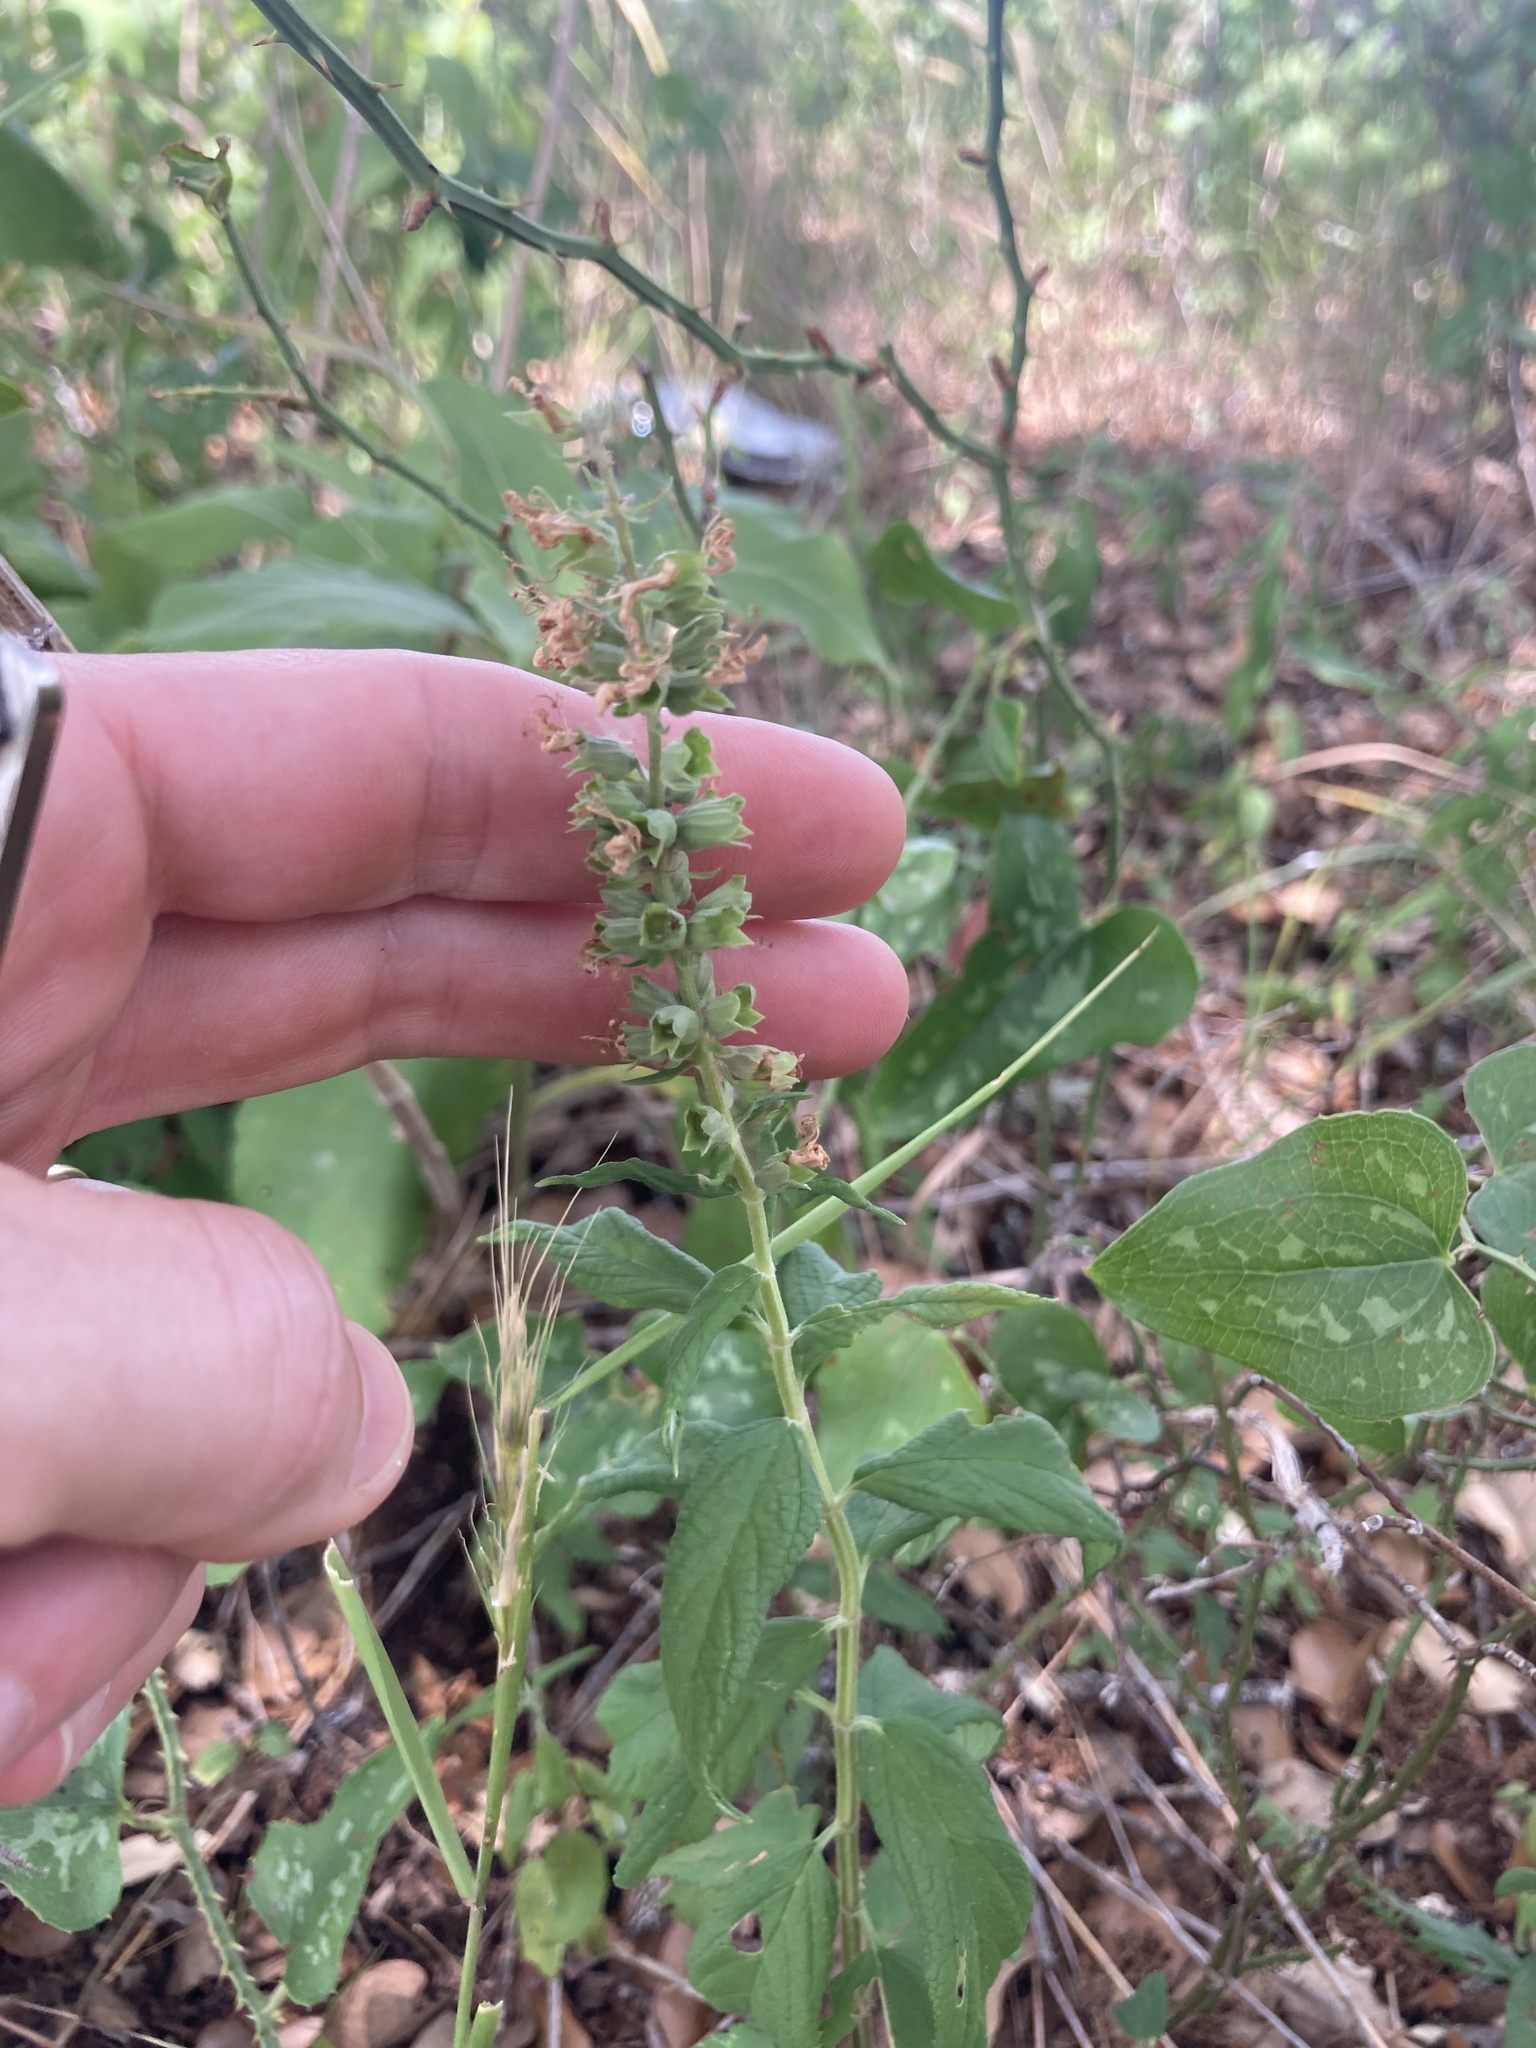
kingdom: Plantae
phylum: Tracheophyta
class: Magnoliopsida
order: Lamiales
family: Lamiaceae
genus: Teucrium
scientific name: Teucrium canadense
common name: American germander
